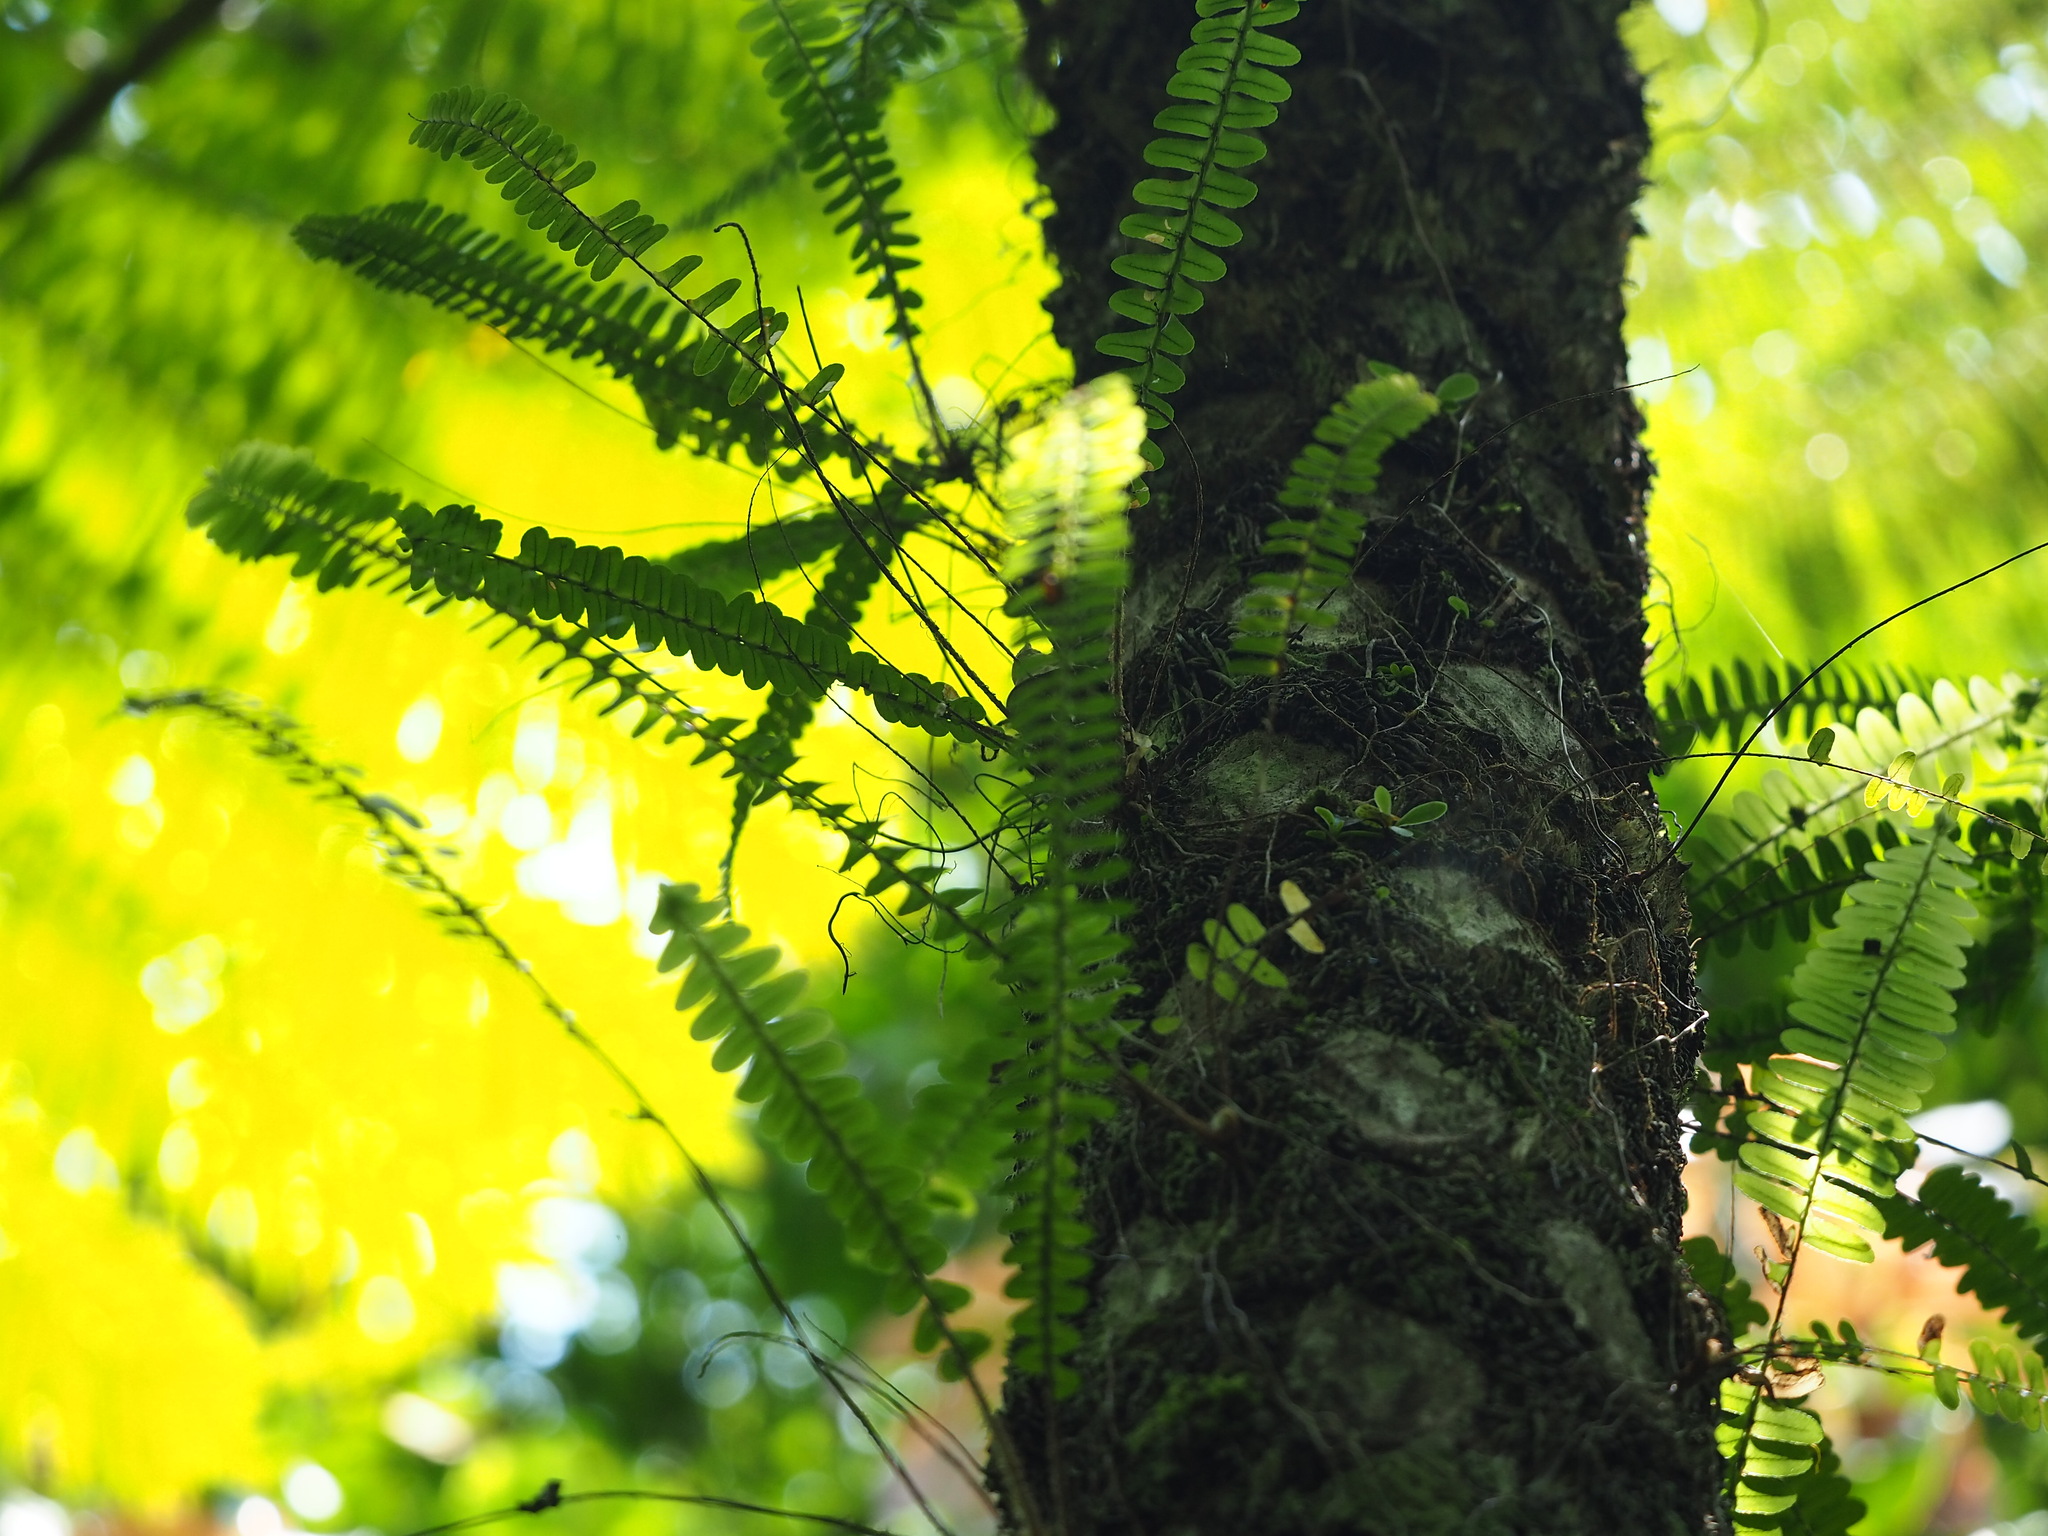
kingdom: Plantae
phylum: Tracheophyta
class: Polypodiopsida
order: Polypodiales
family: Nephrolepidaceae
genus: Nephrolepis
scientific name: Nephrolepis cordifolia
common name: Narrow swordfern
